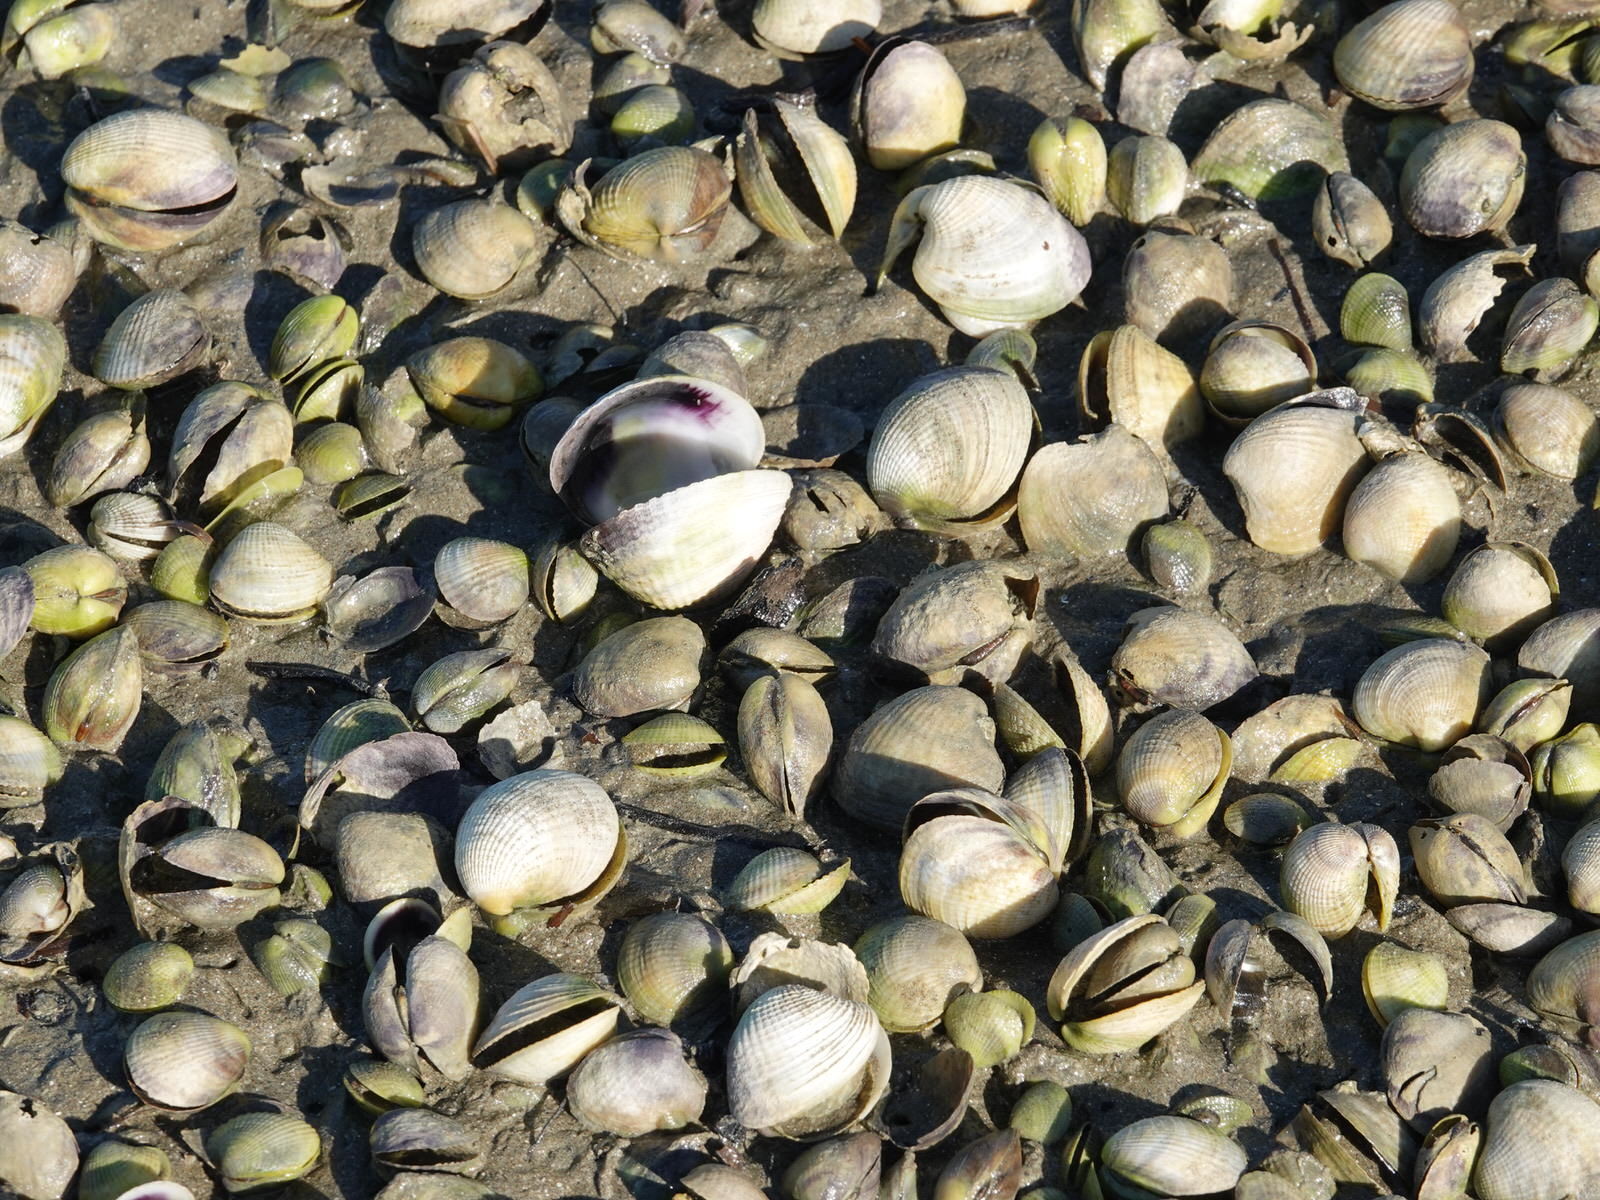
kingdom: Animalia
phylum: Mollusca
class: Bivalvia
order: Venerida
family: Veneridae
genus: Austrovenus
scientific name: Austrovenus stutchburyi
